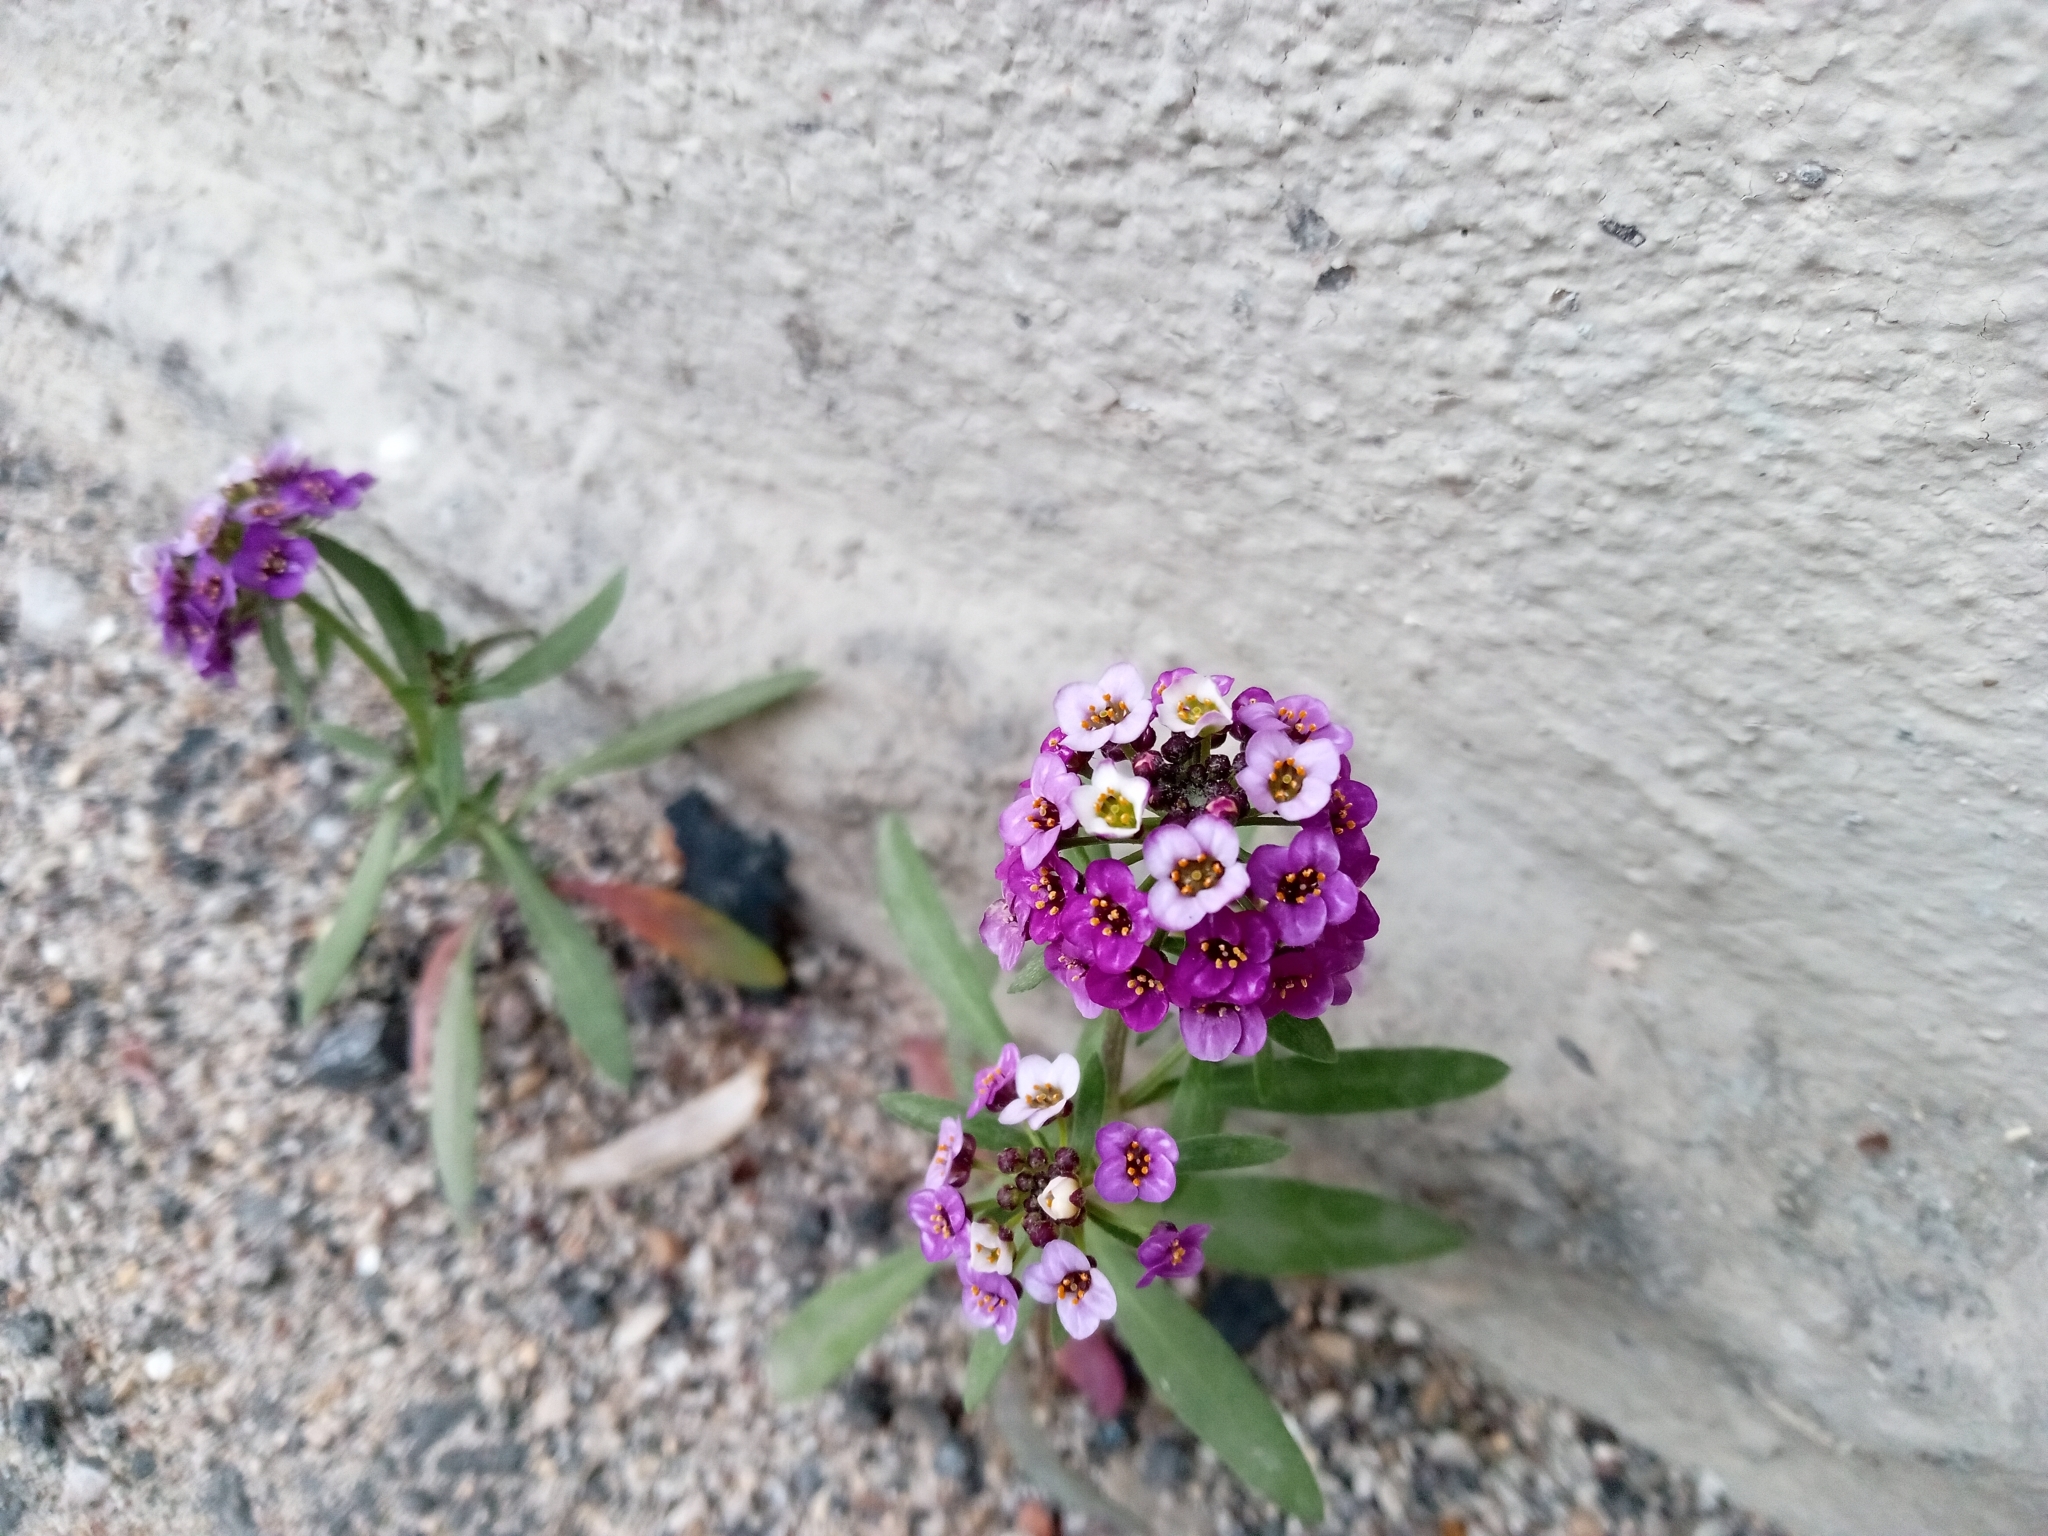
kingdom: Plantae
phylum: Tracheophyta
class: Magnoliopsida
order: Brassicales
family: Brassicaceae
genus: Lobularia
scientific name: Lobularia maritima
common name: Sweet alison
